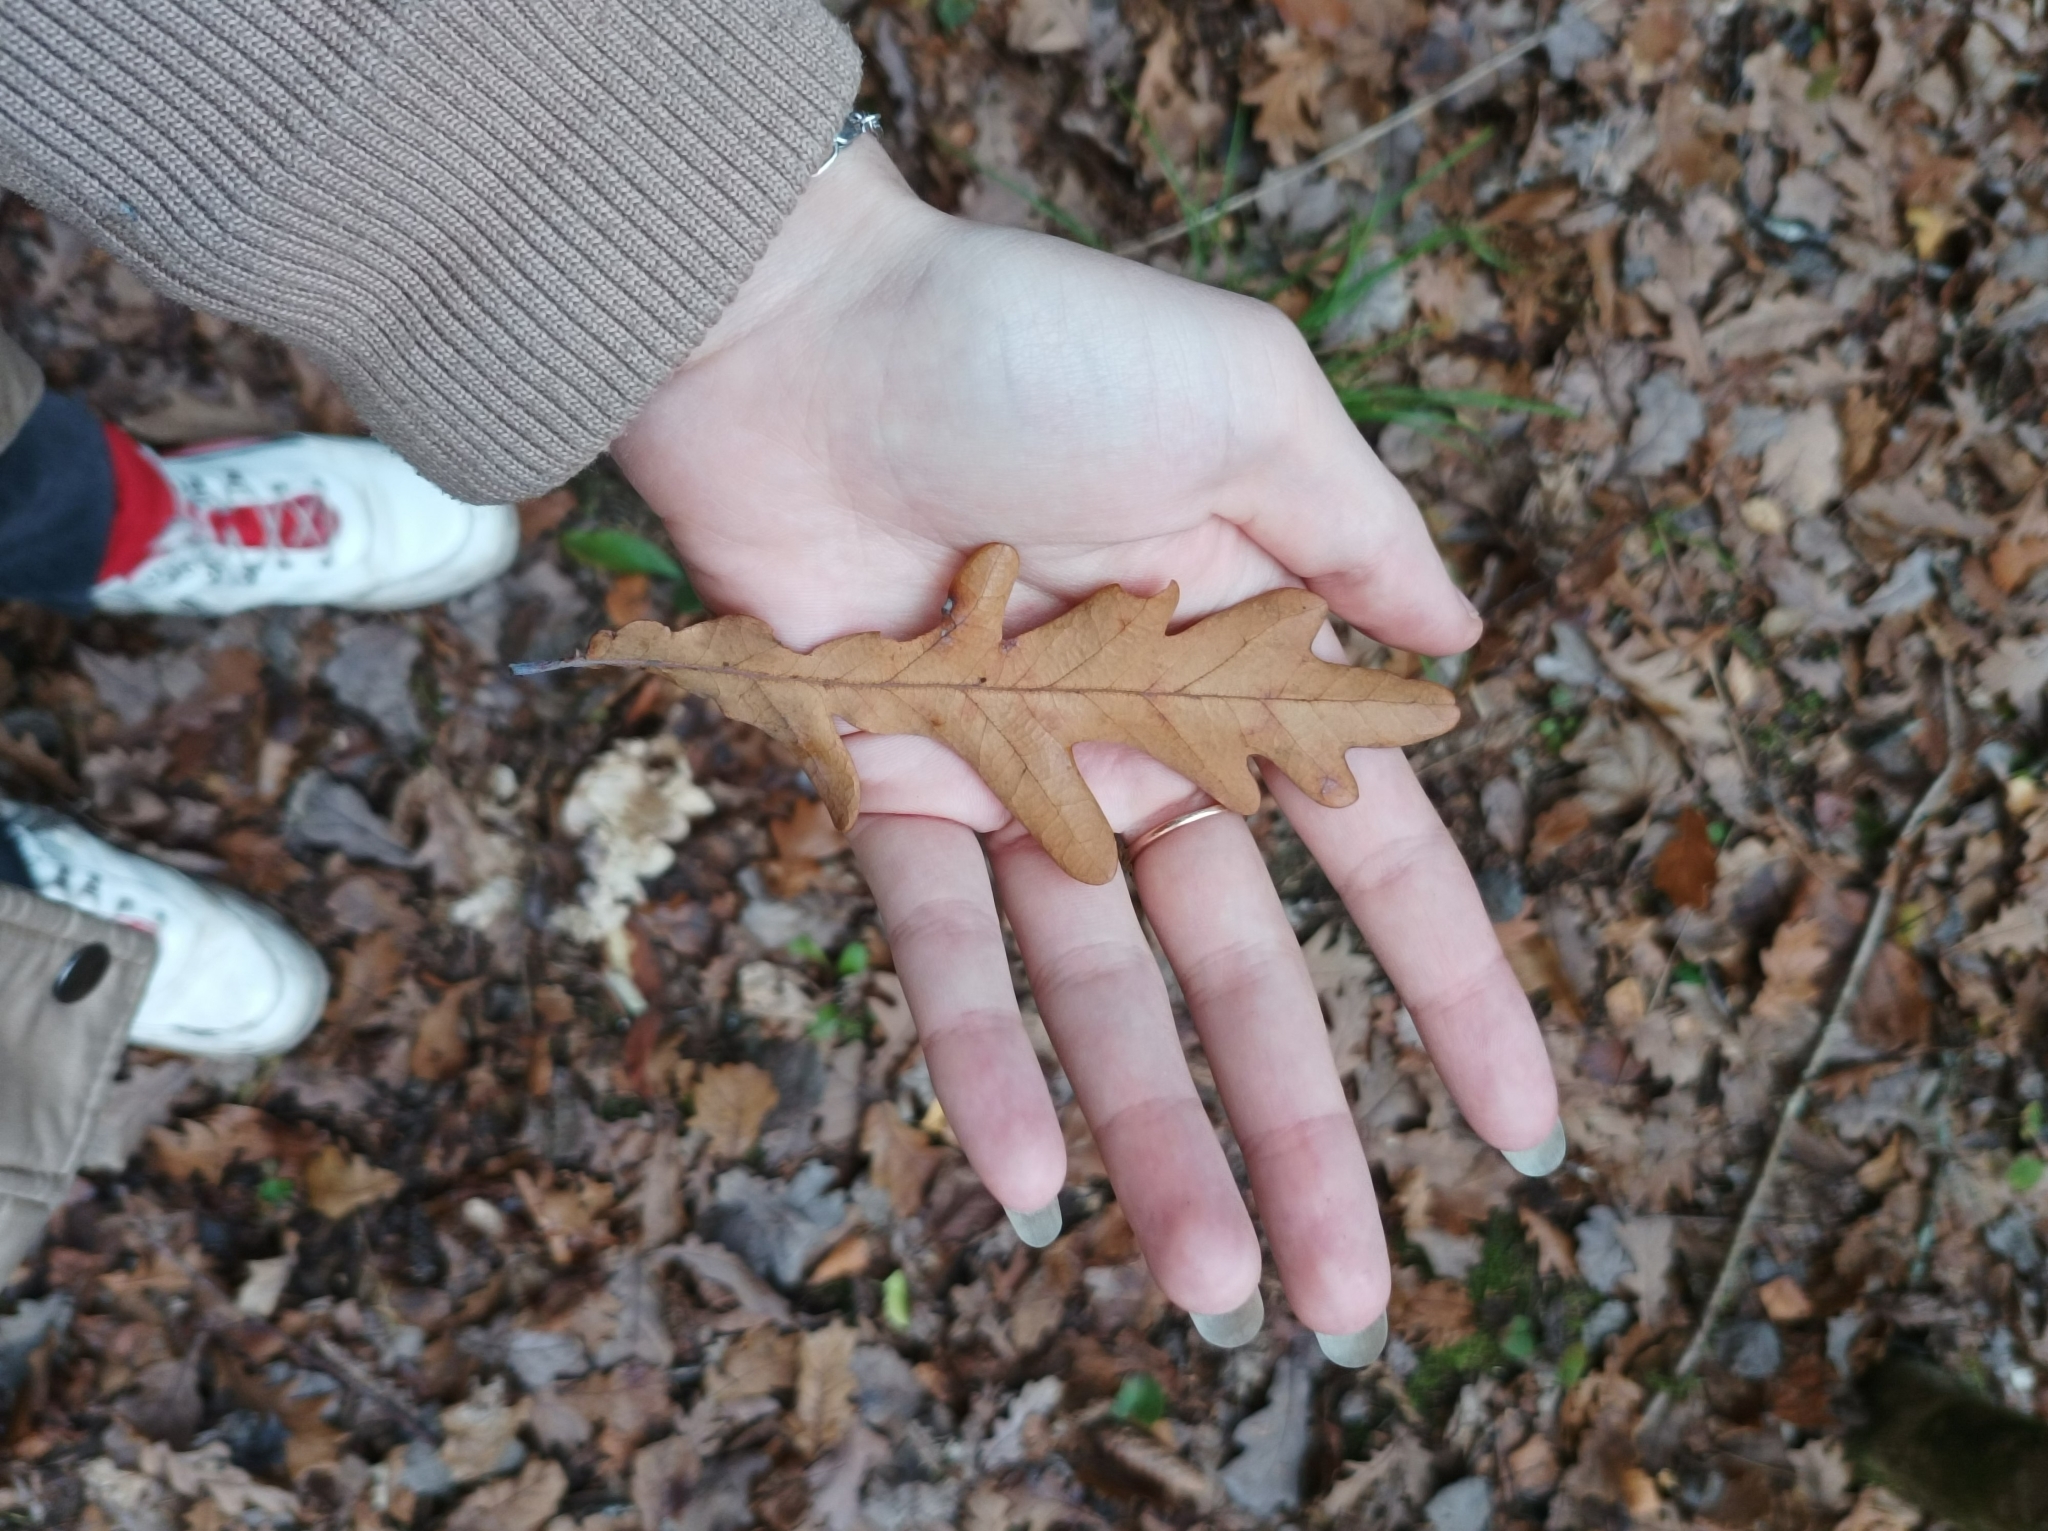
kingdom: Plantae
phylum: Tracheophyta
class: Magnoliopsida
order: Fagales
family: Fagaceae
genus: Quercus
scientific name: Quercus robur
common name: Pedunculate oak
